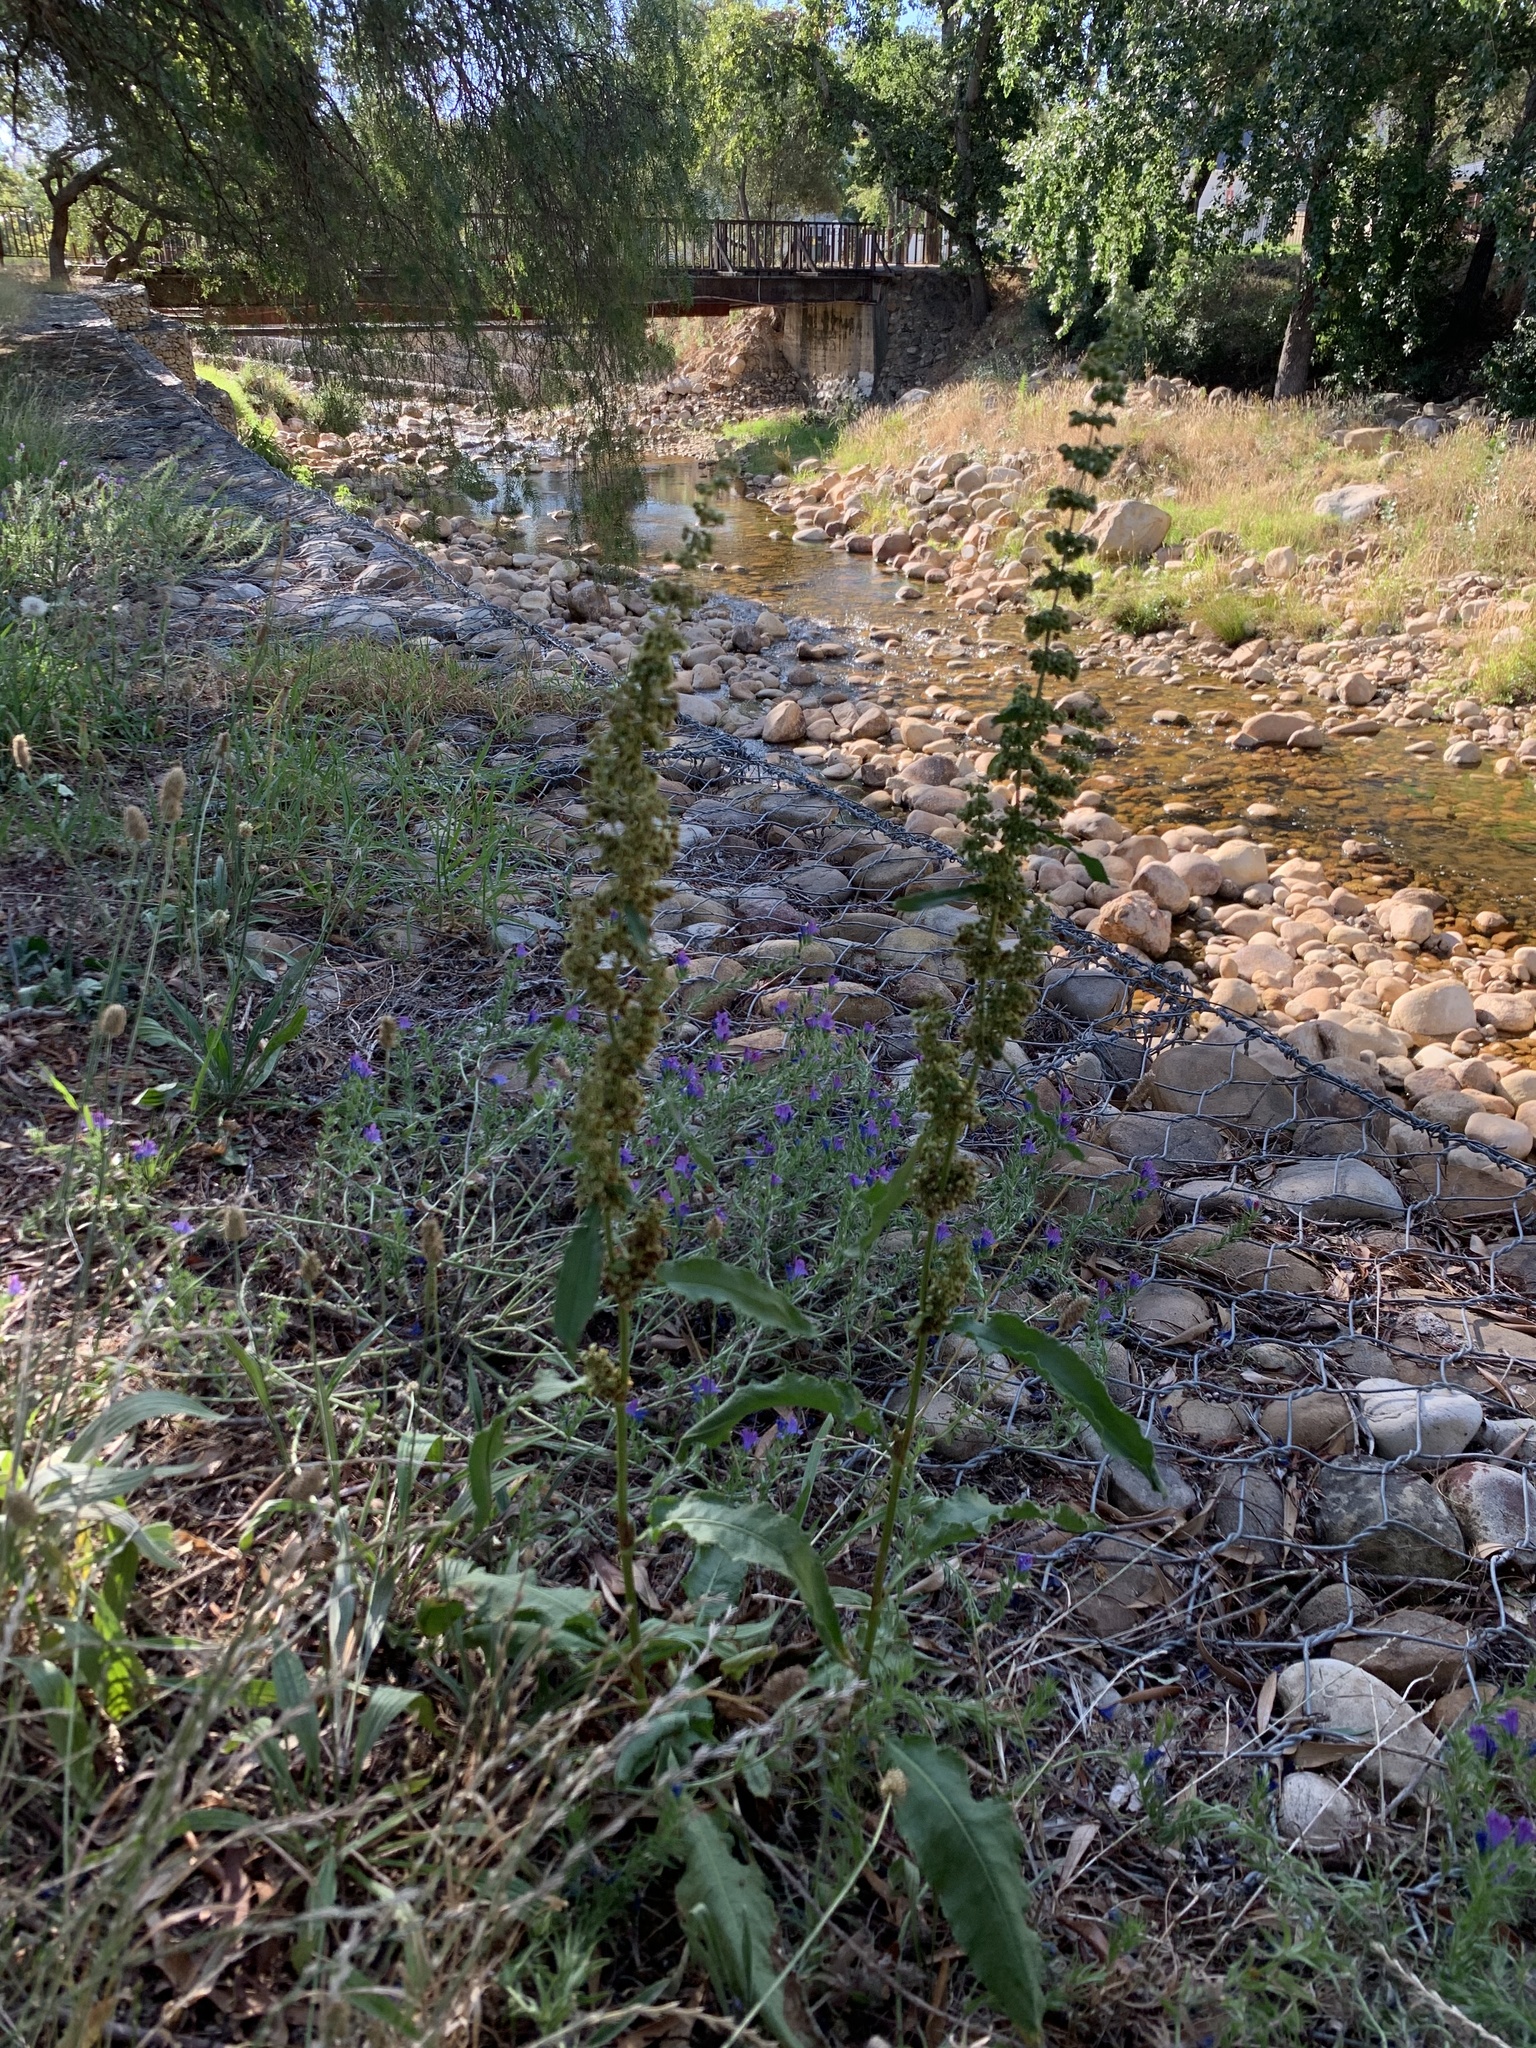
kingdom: Plantae
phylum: Tracheophyta
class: Magnoliopsida
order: Caryophyllales
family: Polygonaceae
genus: Rumex
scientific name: Rumex crispus
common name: Curled dock
